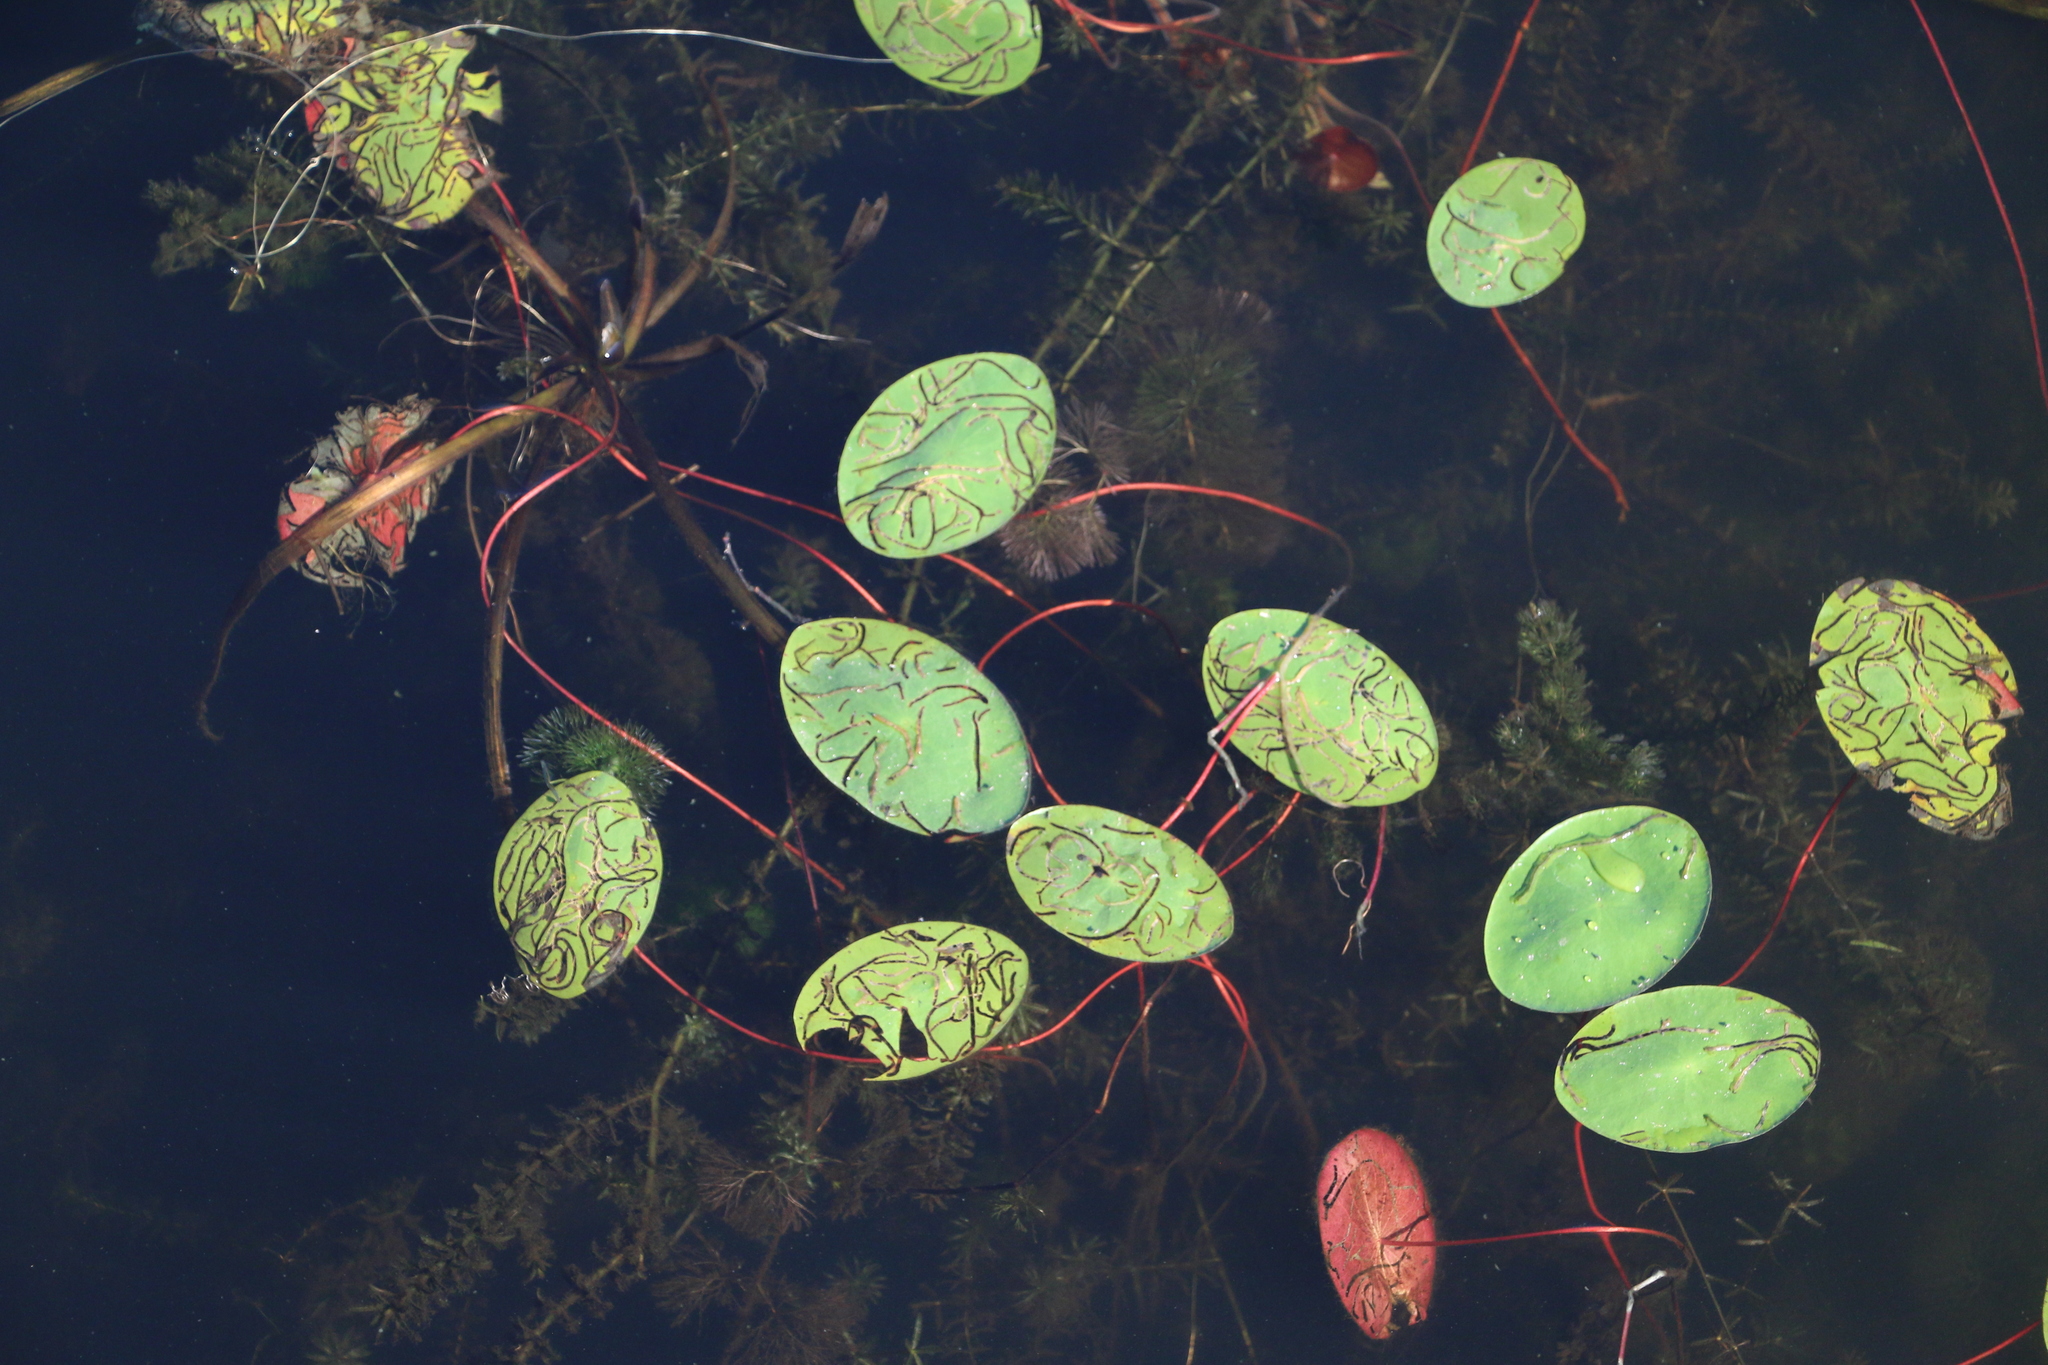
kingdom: Plantae
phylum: Tracheophyta
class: Magnoliopsida
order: Nymphaeales
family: Cabombaceae
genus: Brasenia
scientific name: Brasenia schreberi
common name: Water-shield
